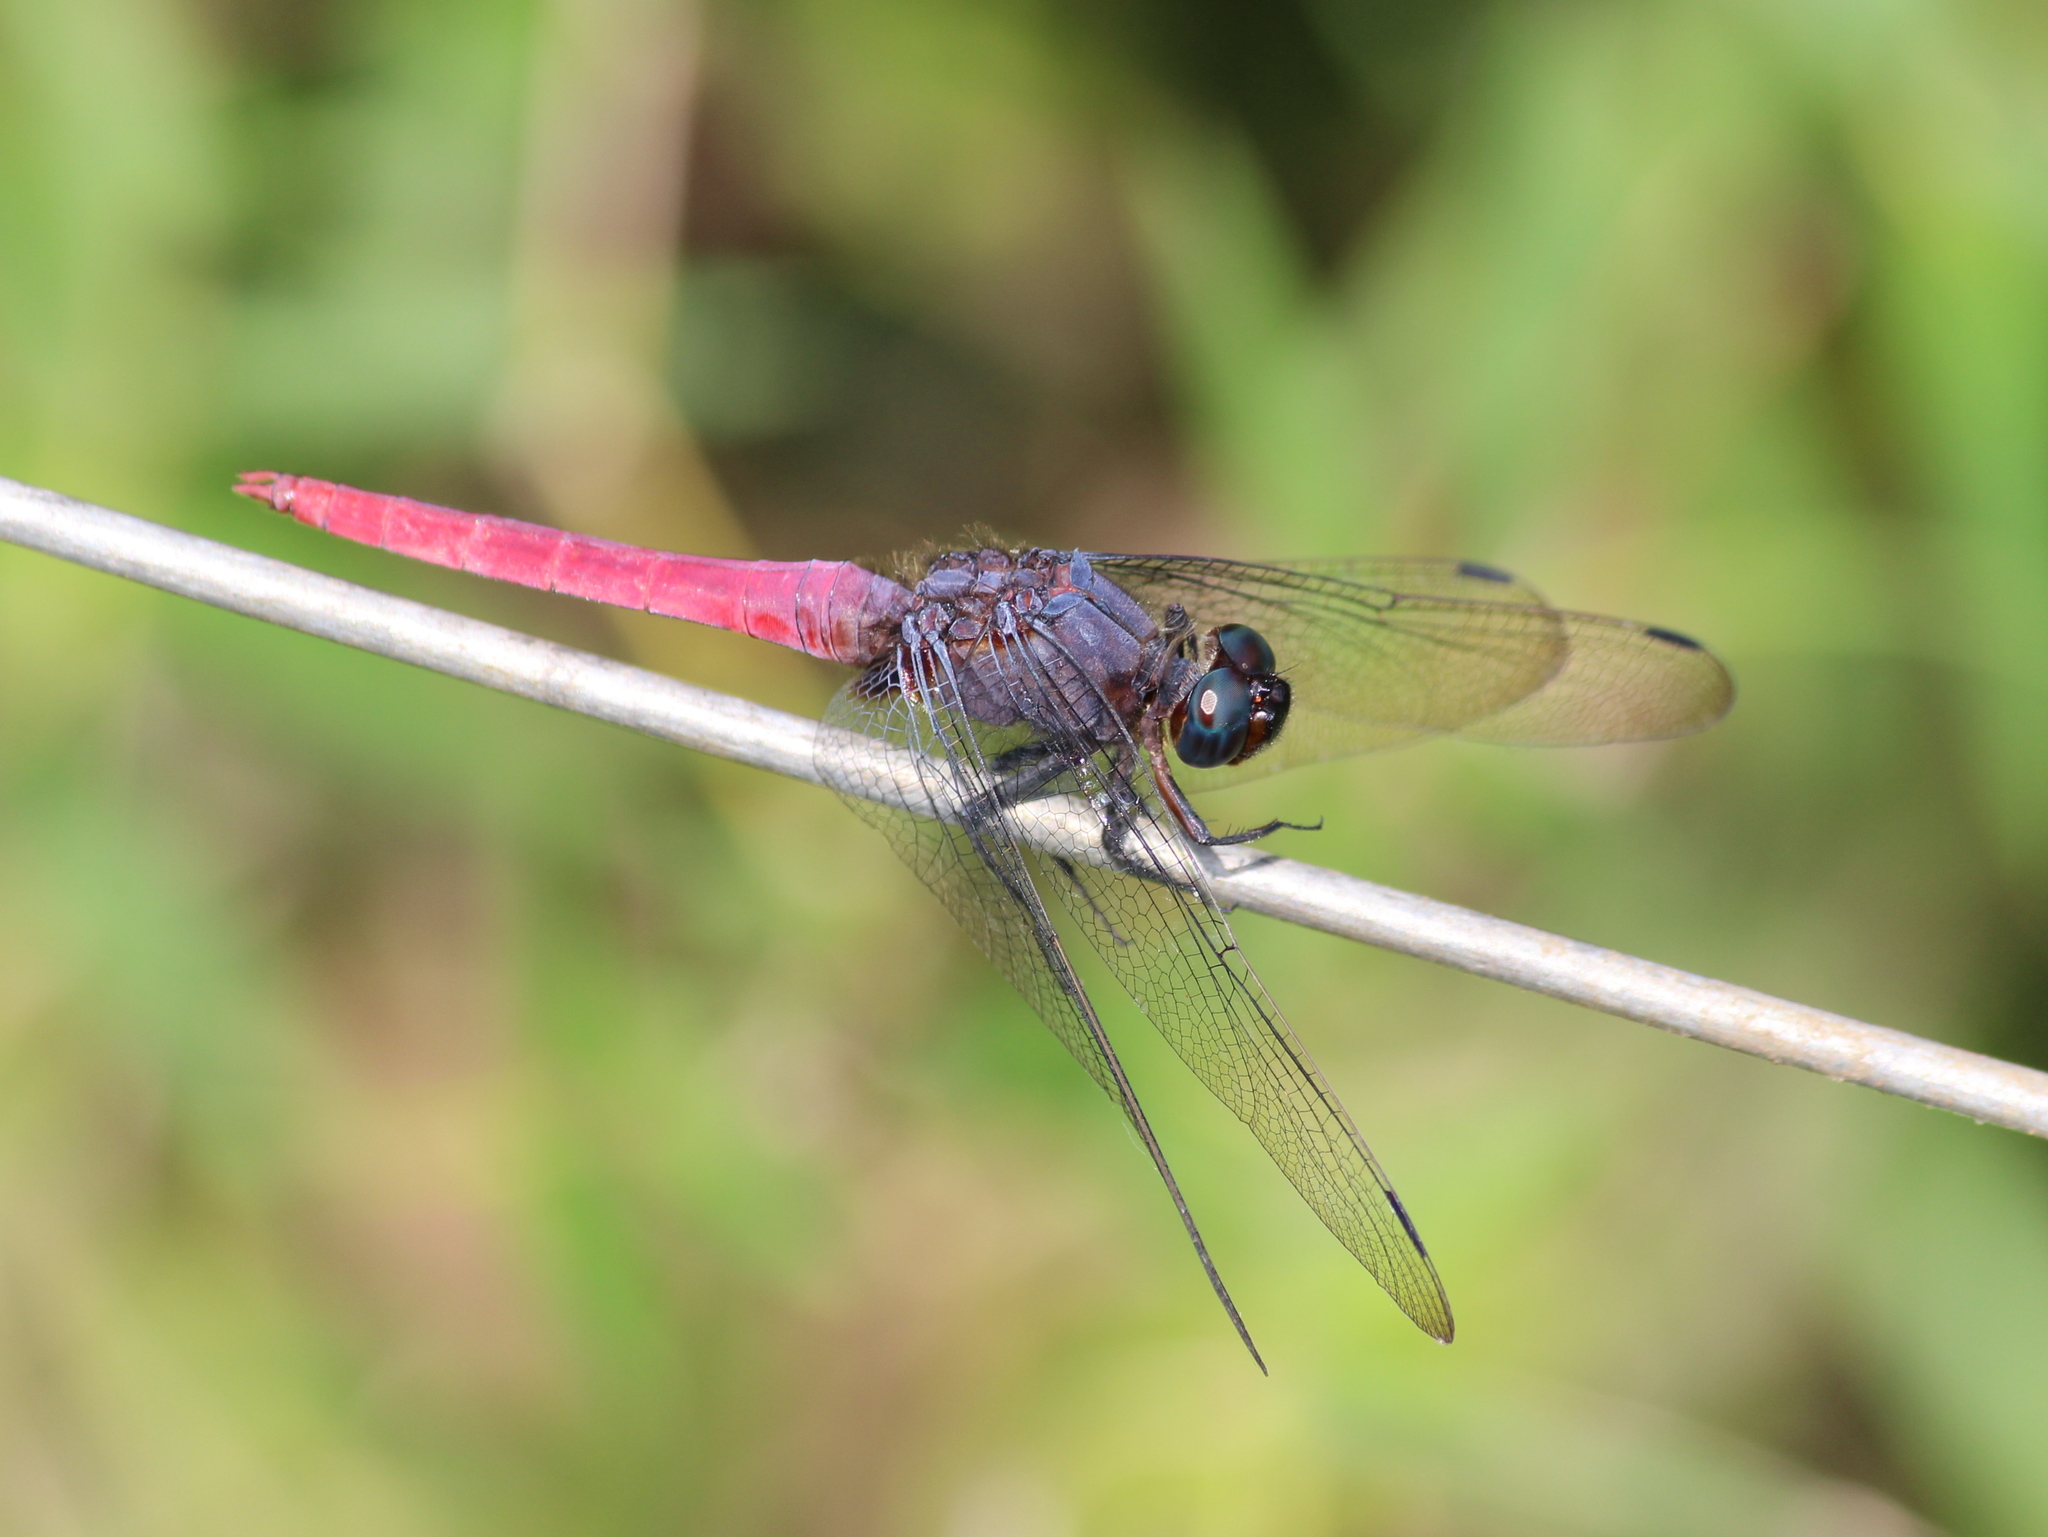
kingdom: Animalia
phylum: Arthropoda
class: Insecta
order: Odonata
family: Libellulidae
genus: Orthetrum
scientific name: Orthetrum pruinosum
